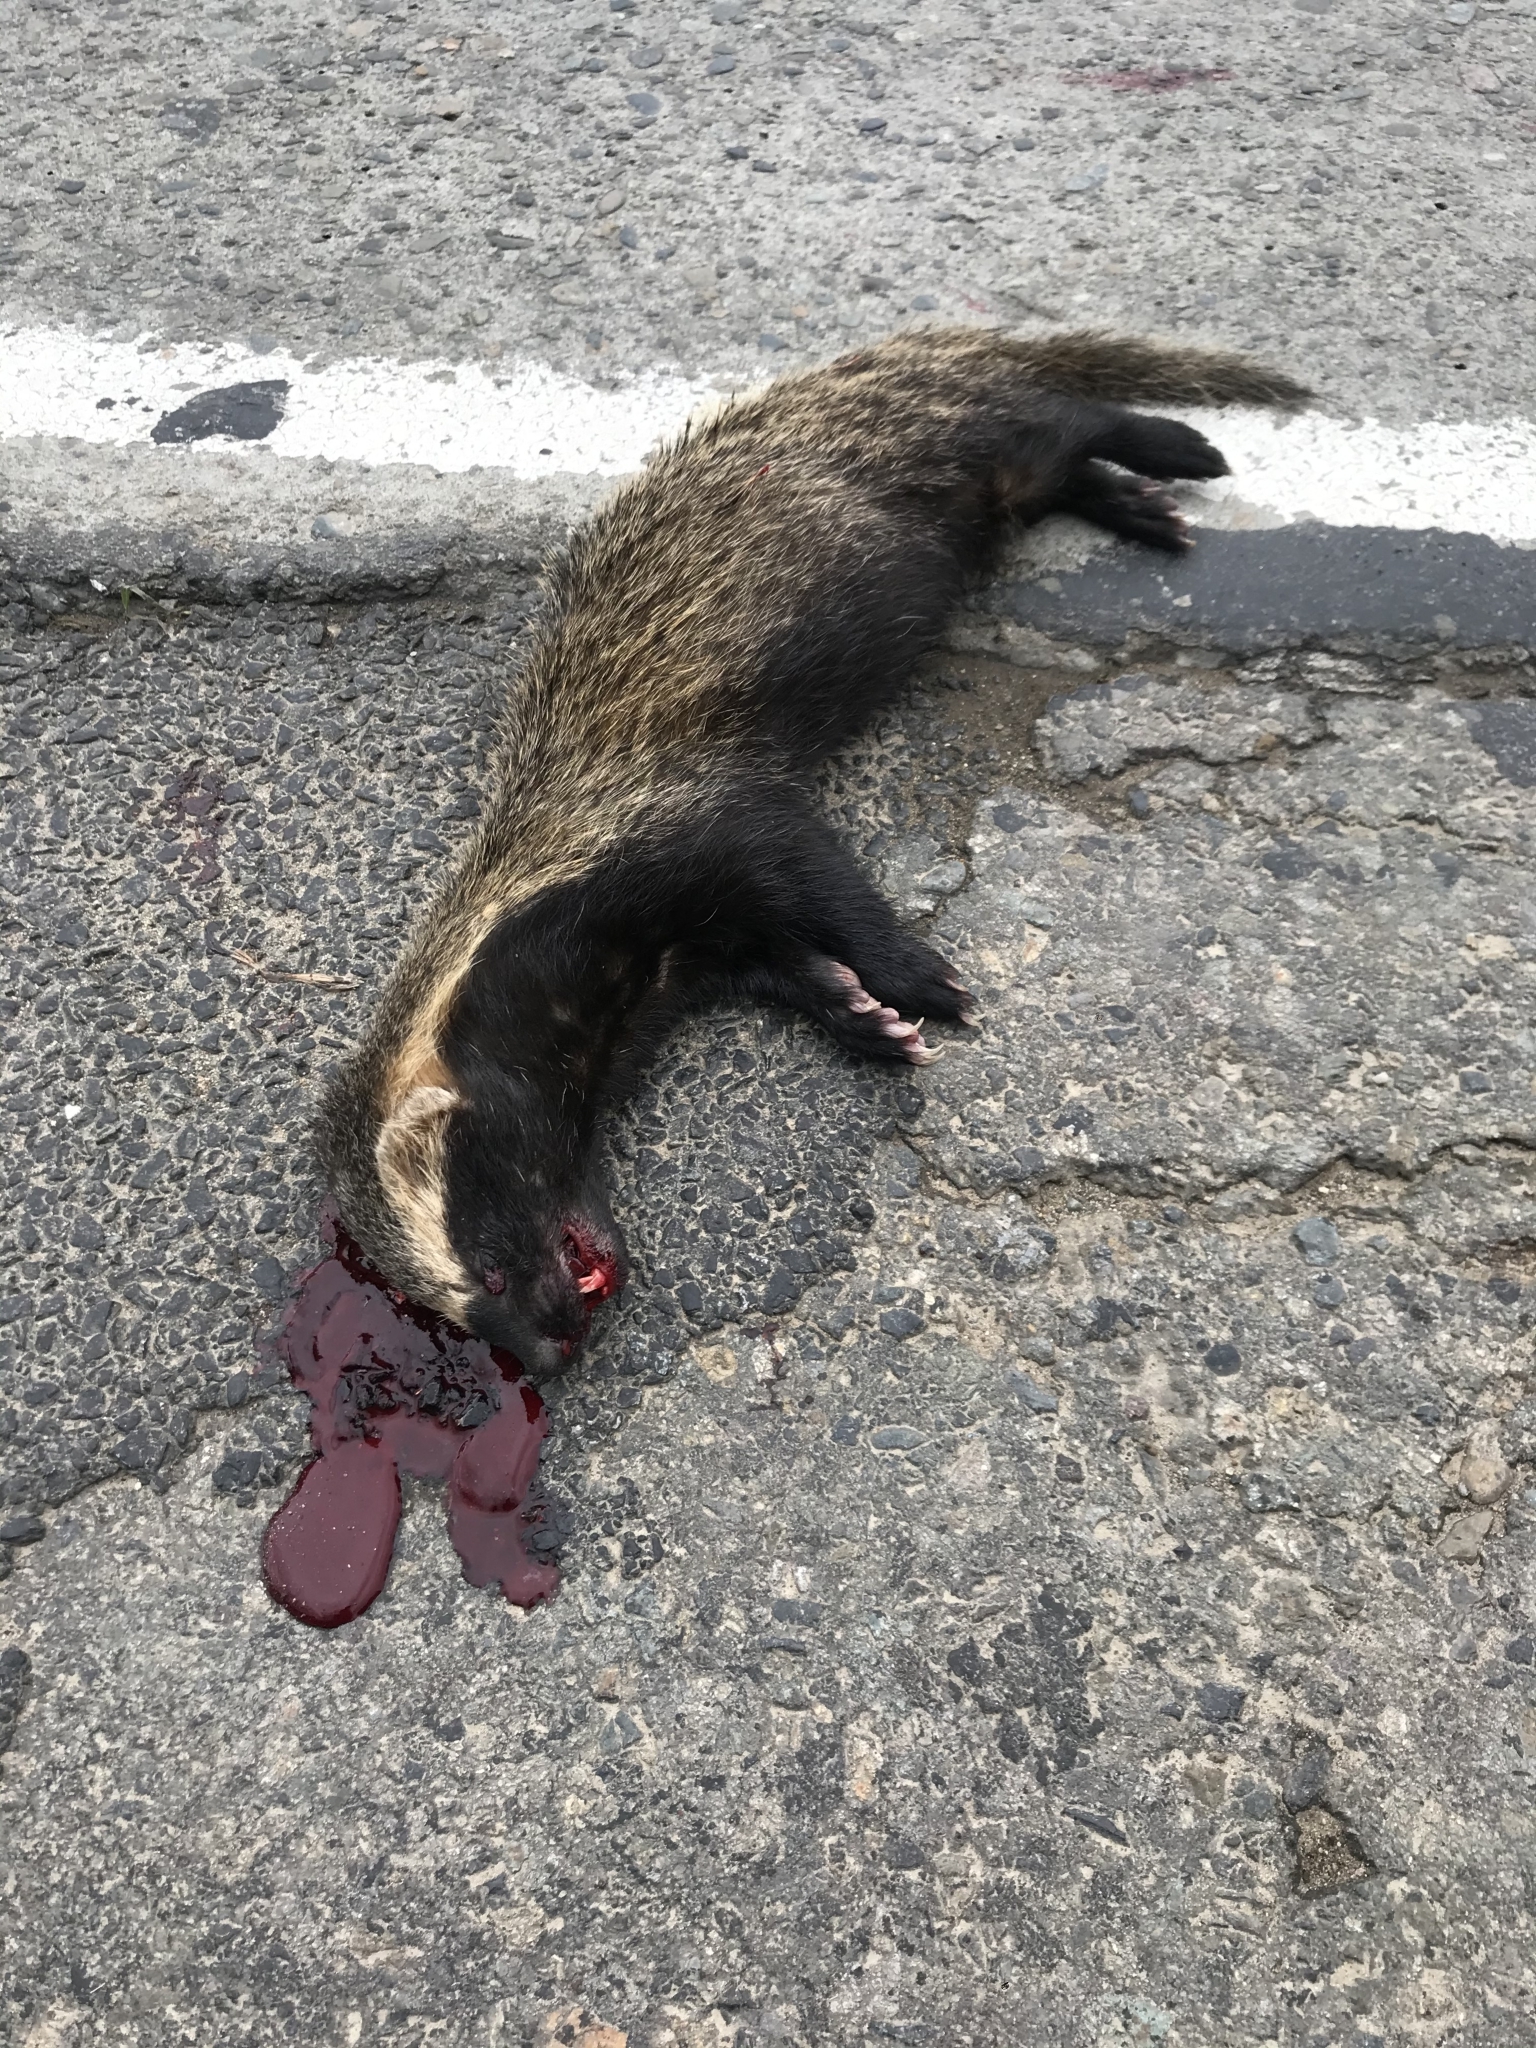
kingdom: Animalia
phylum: Chordata
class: Mammalia
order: Carnivora
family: Mustelidae
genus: Galictis
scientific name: Galictis cuja
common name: Lesser grison
